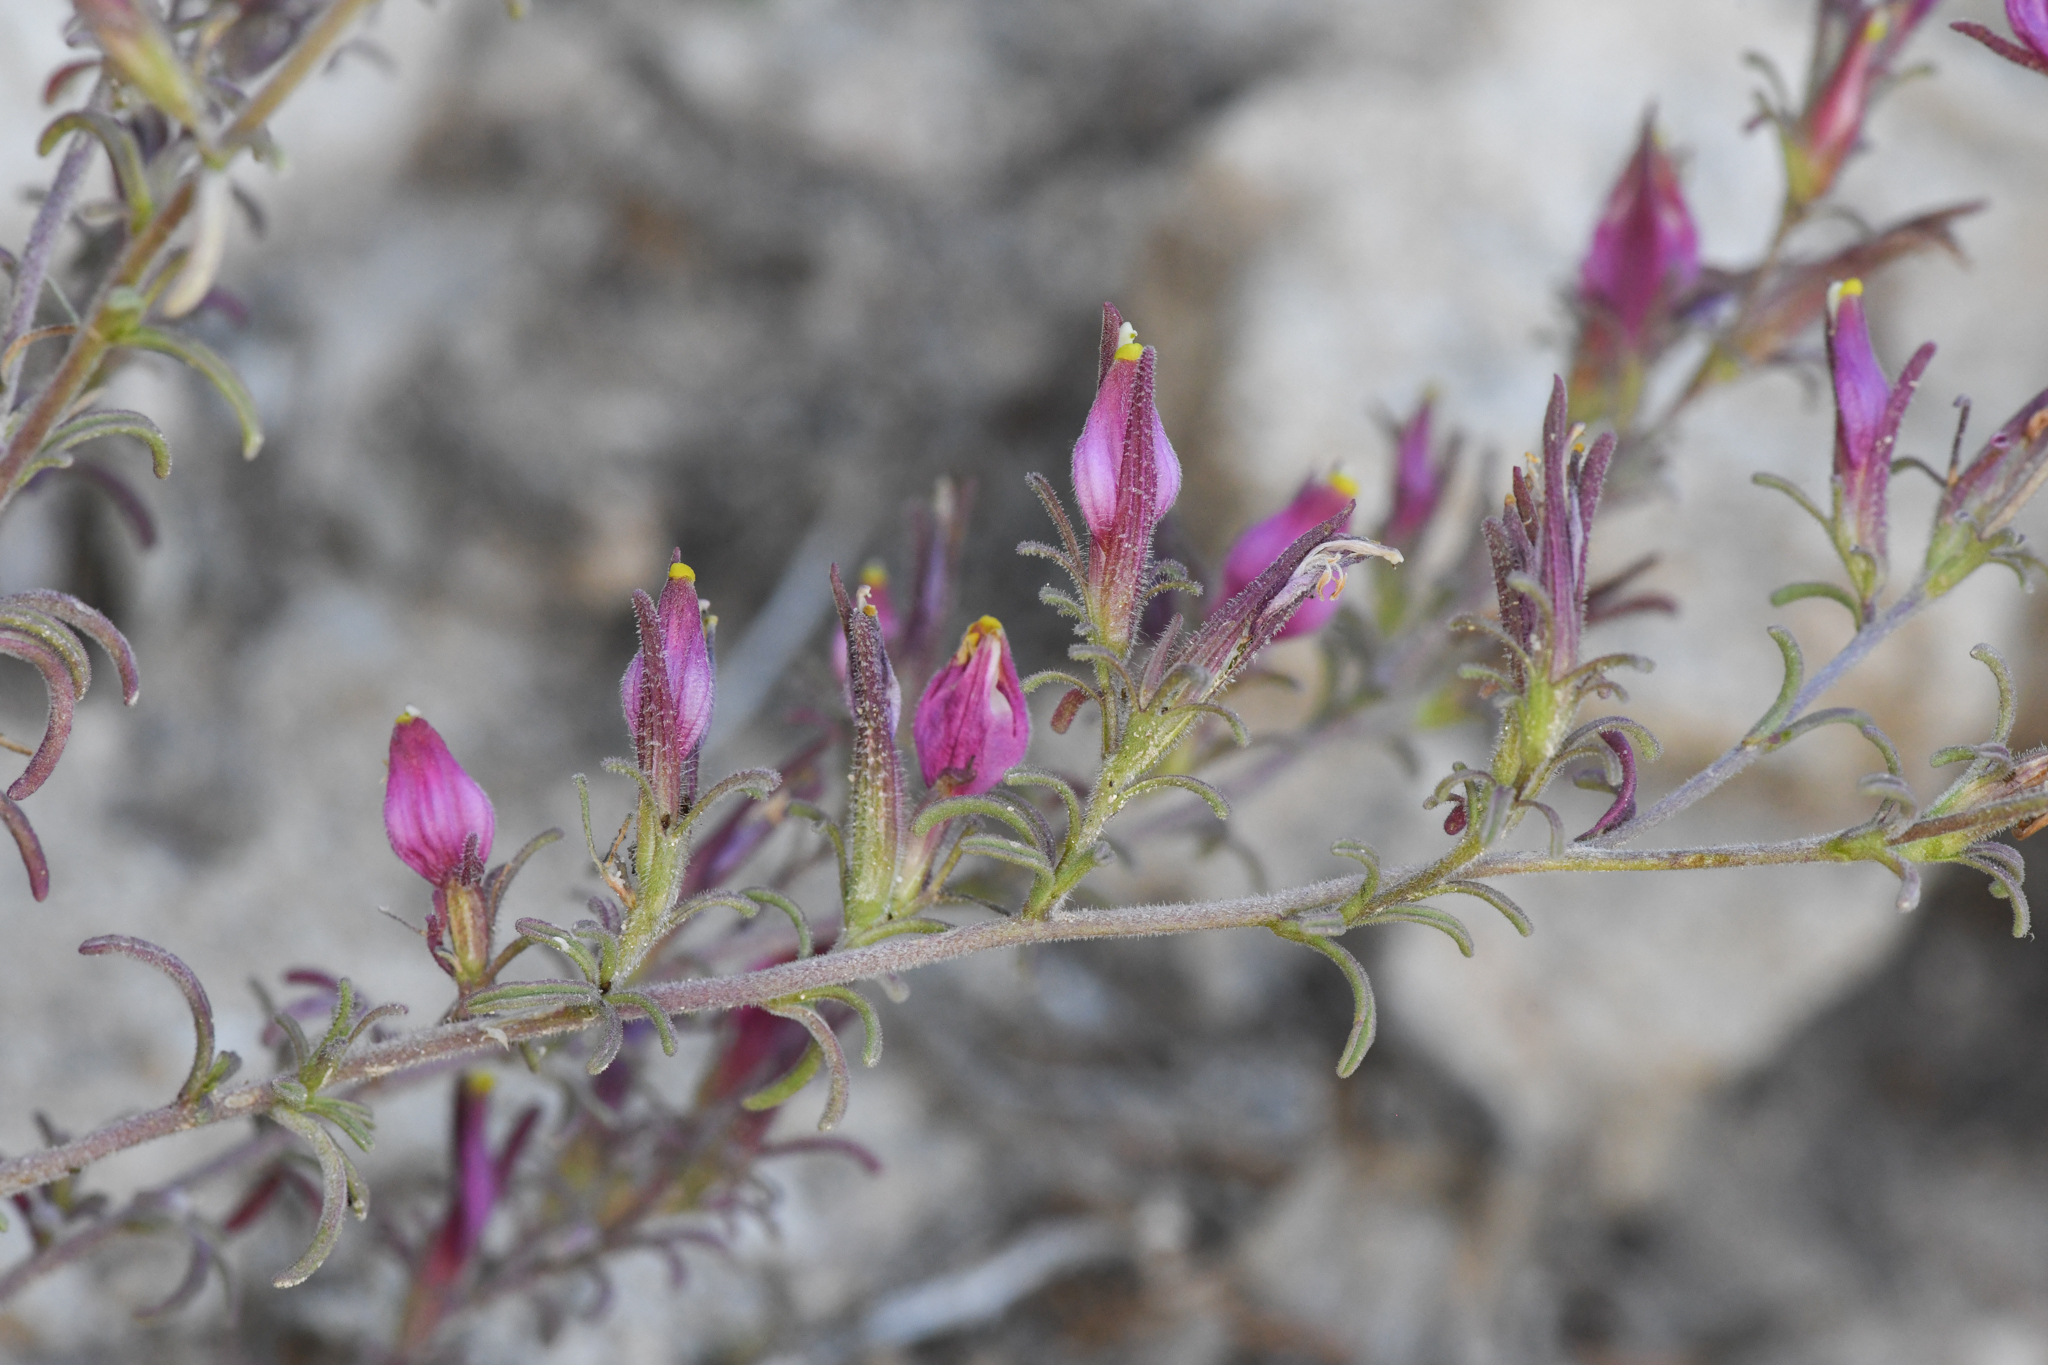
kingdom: Plantae
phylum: Tracheophyta
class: Magnoliopsida
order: Lamiales
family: Orobanchaceae
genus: Cordylanthus
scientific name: Cordylanthus parviflorus
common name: Purple bird's-beak
